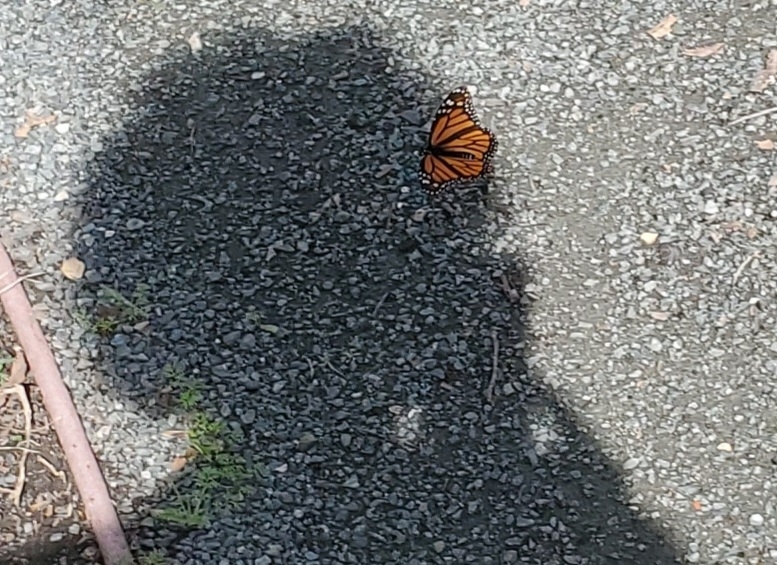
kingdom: Animalia
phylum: Arthropoda
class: Insecta
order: Lepidoptera
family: Nymphalidae
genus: Danaus
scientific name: Danaus plexippus
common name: Monarch
